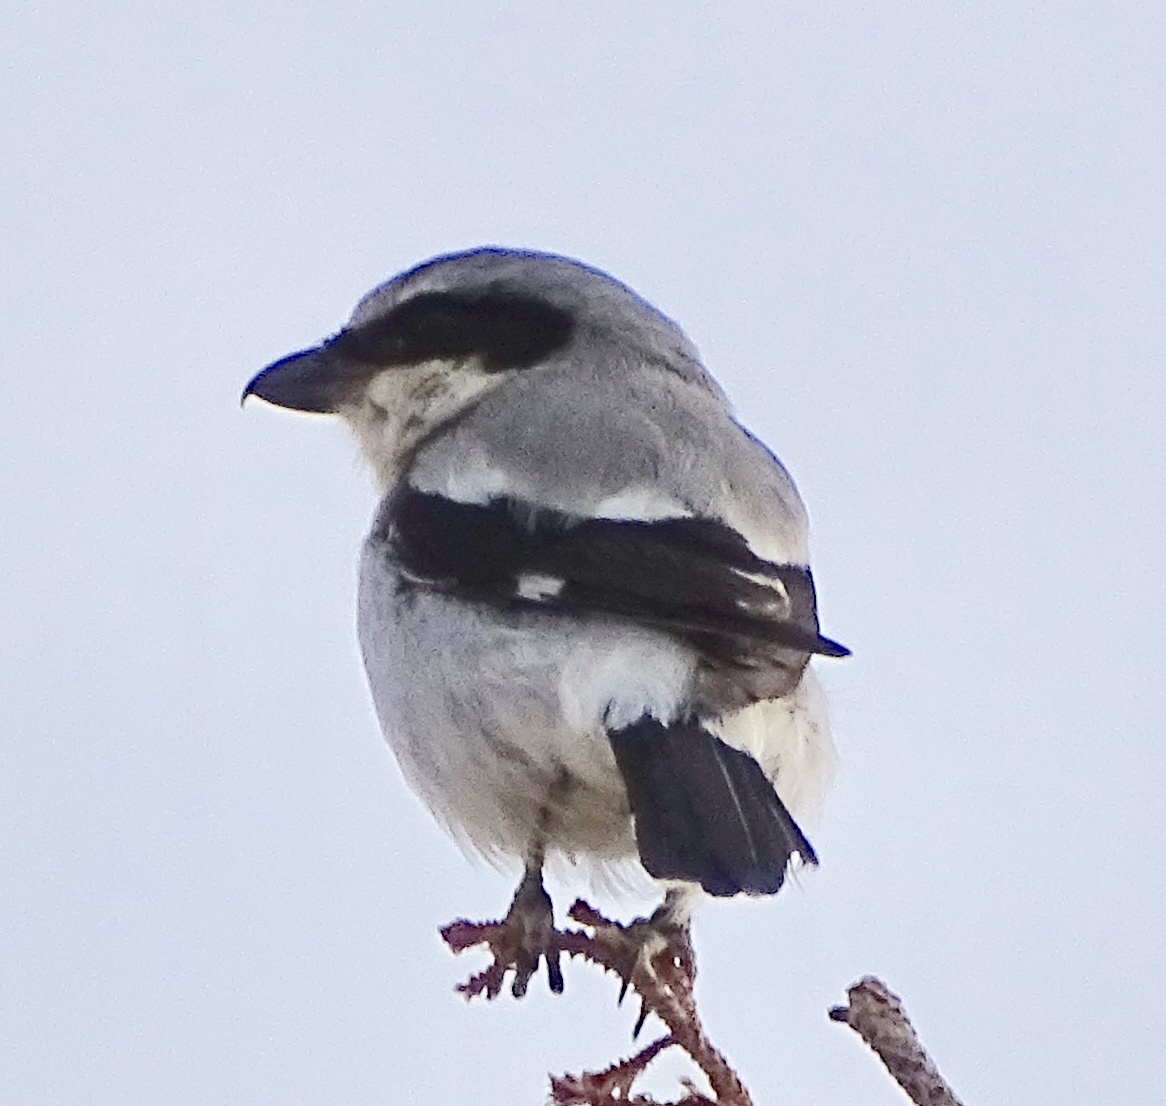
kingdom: Animalia
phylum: Chordata
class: Aves
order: Passeriformes
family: Laniidae
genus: Lanius
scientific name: Lanius ludovicianus
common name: Loggerhead shrike
